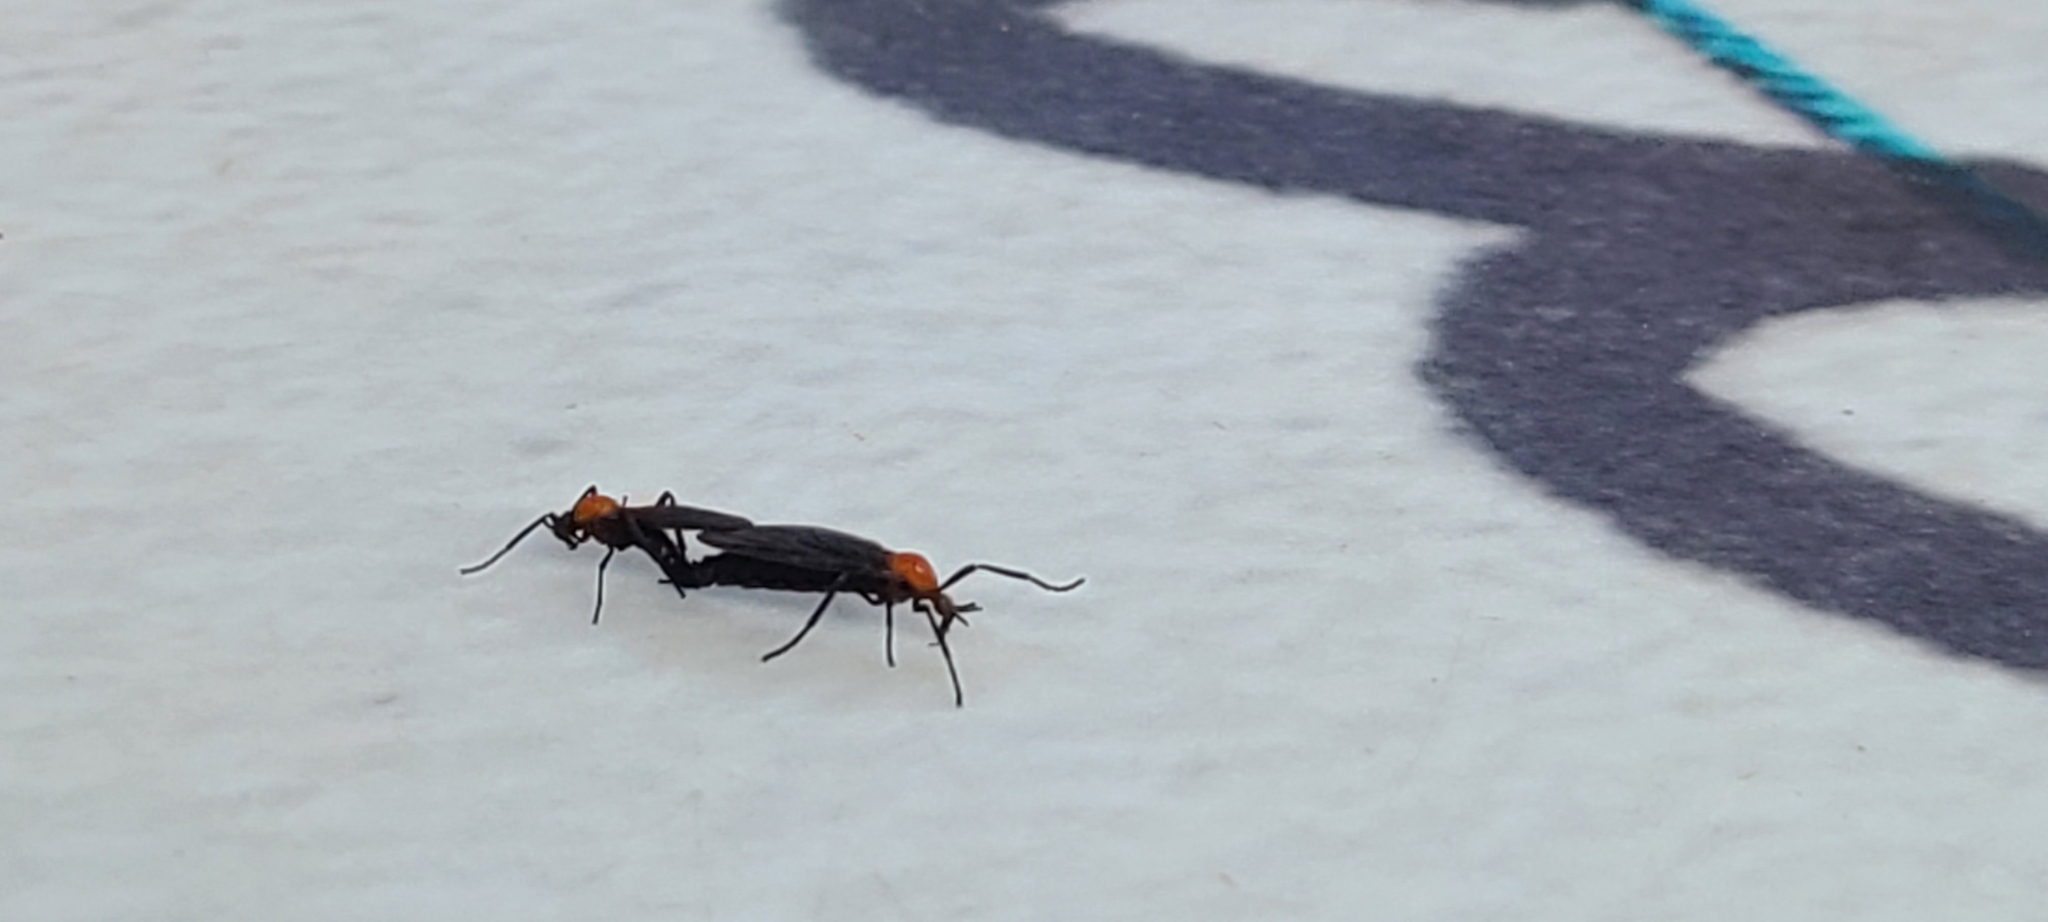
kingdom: Animalia
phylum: Arthropoda
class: Insecta
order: Diptera
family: Bibionidae
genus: Plecia
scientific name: Plecia nearctica
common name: March fly
